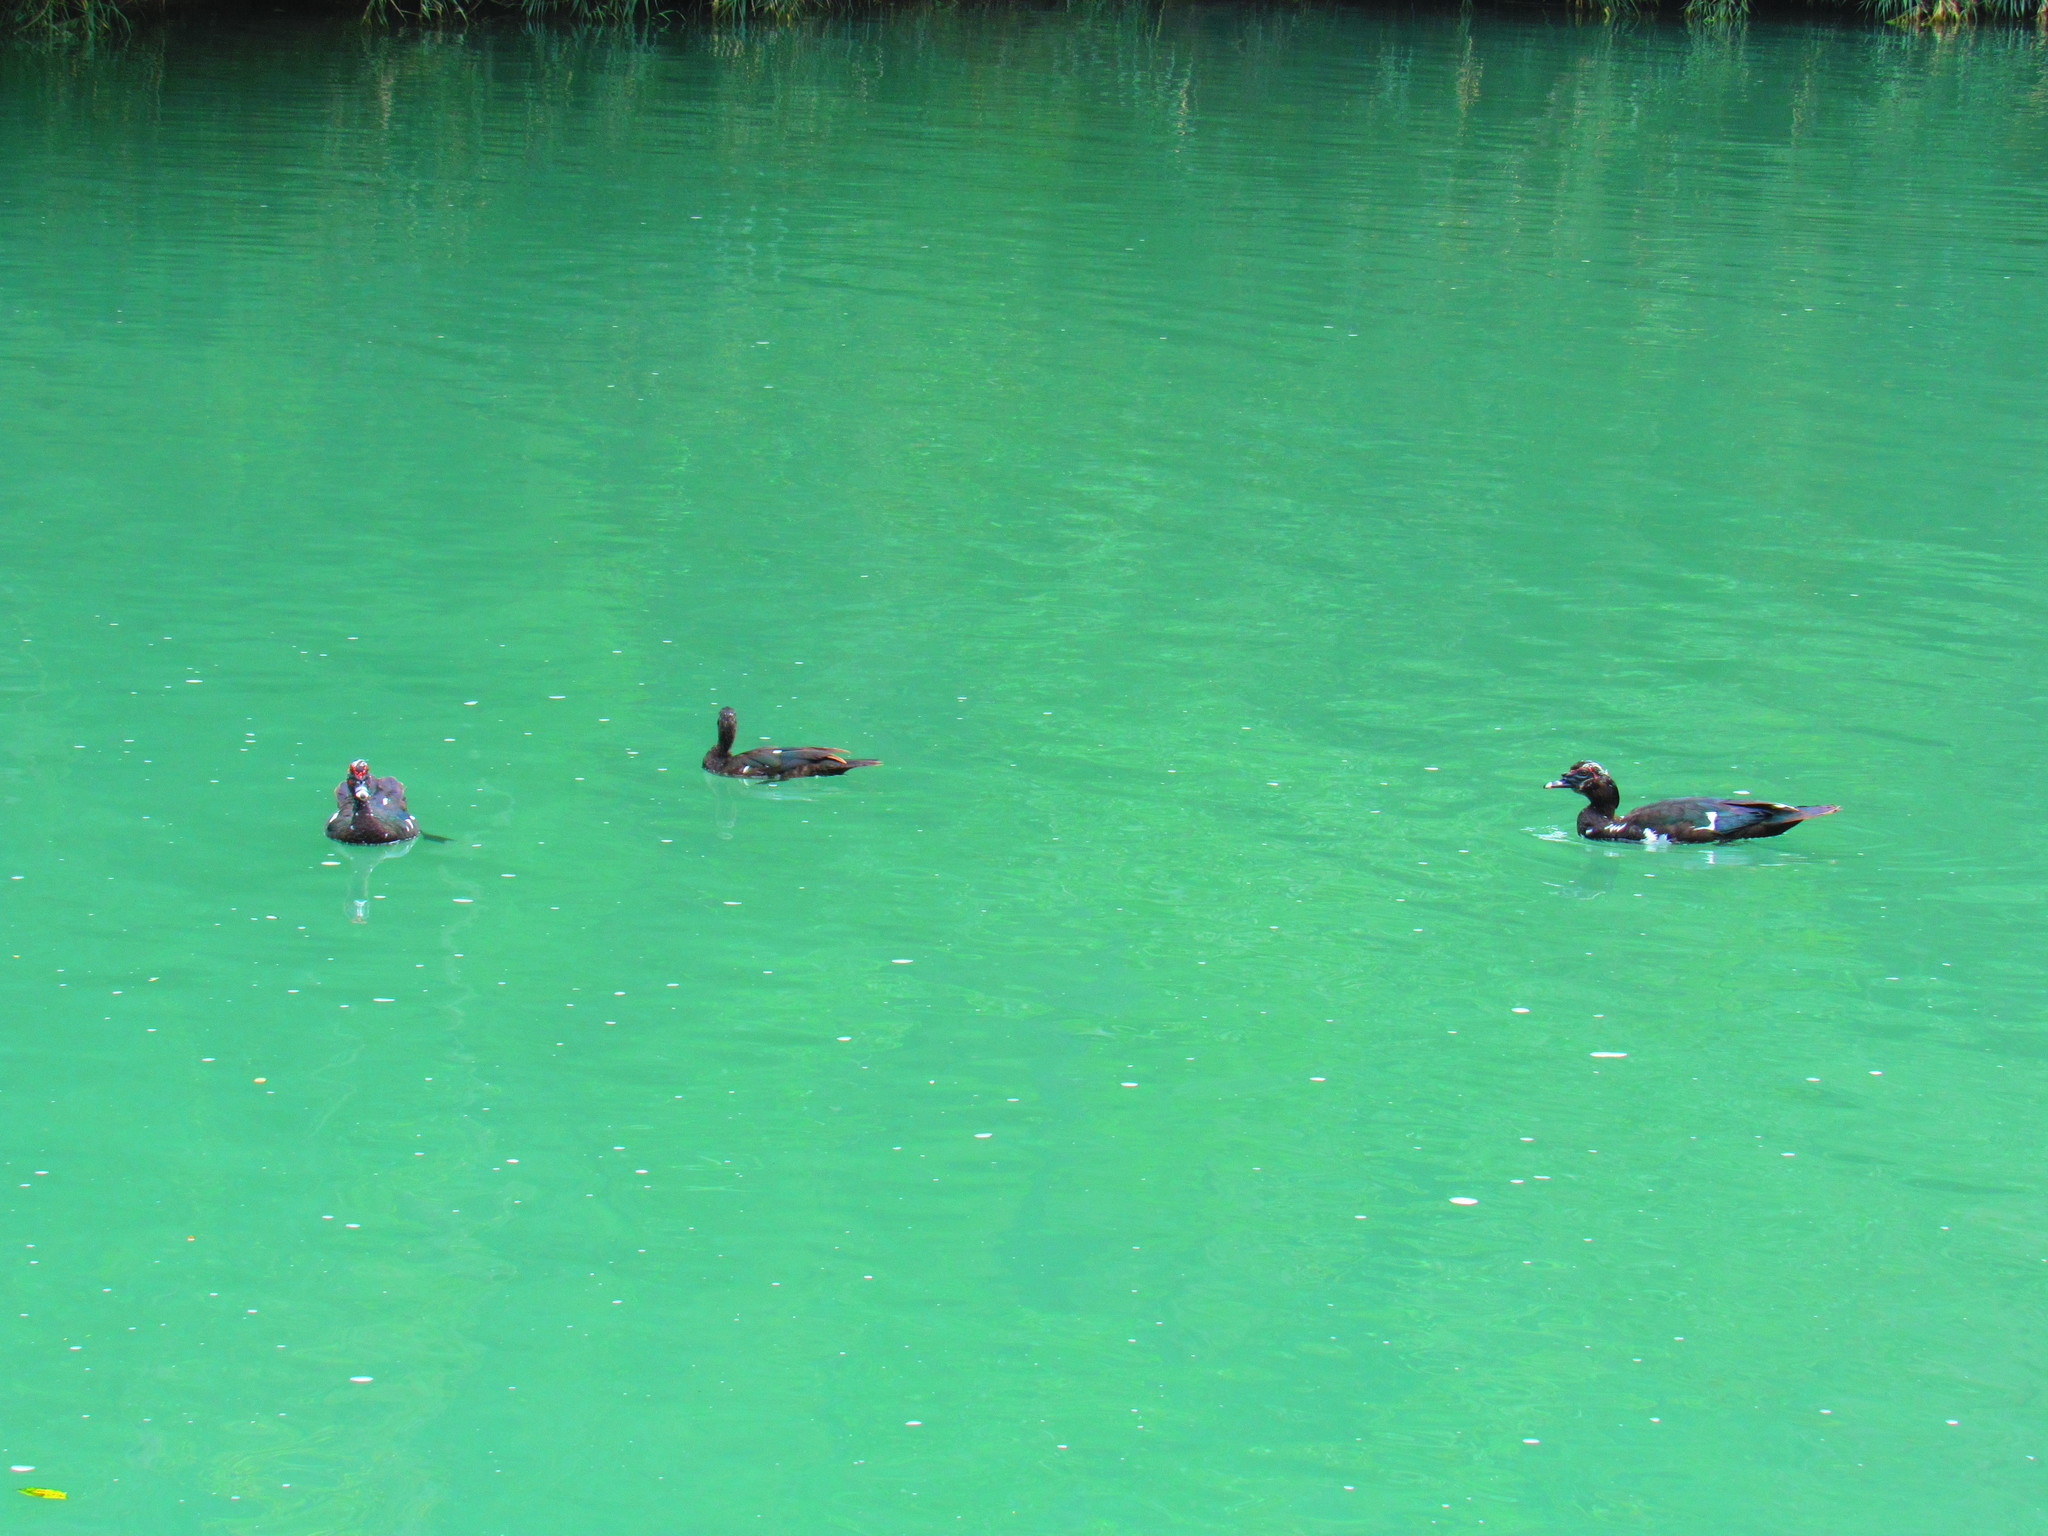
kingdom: Animalia
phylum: Chordata
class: Aves
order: Anseriformes
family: Anatidae
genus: Cairina
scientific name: Cairina moschata
